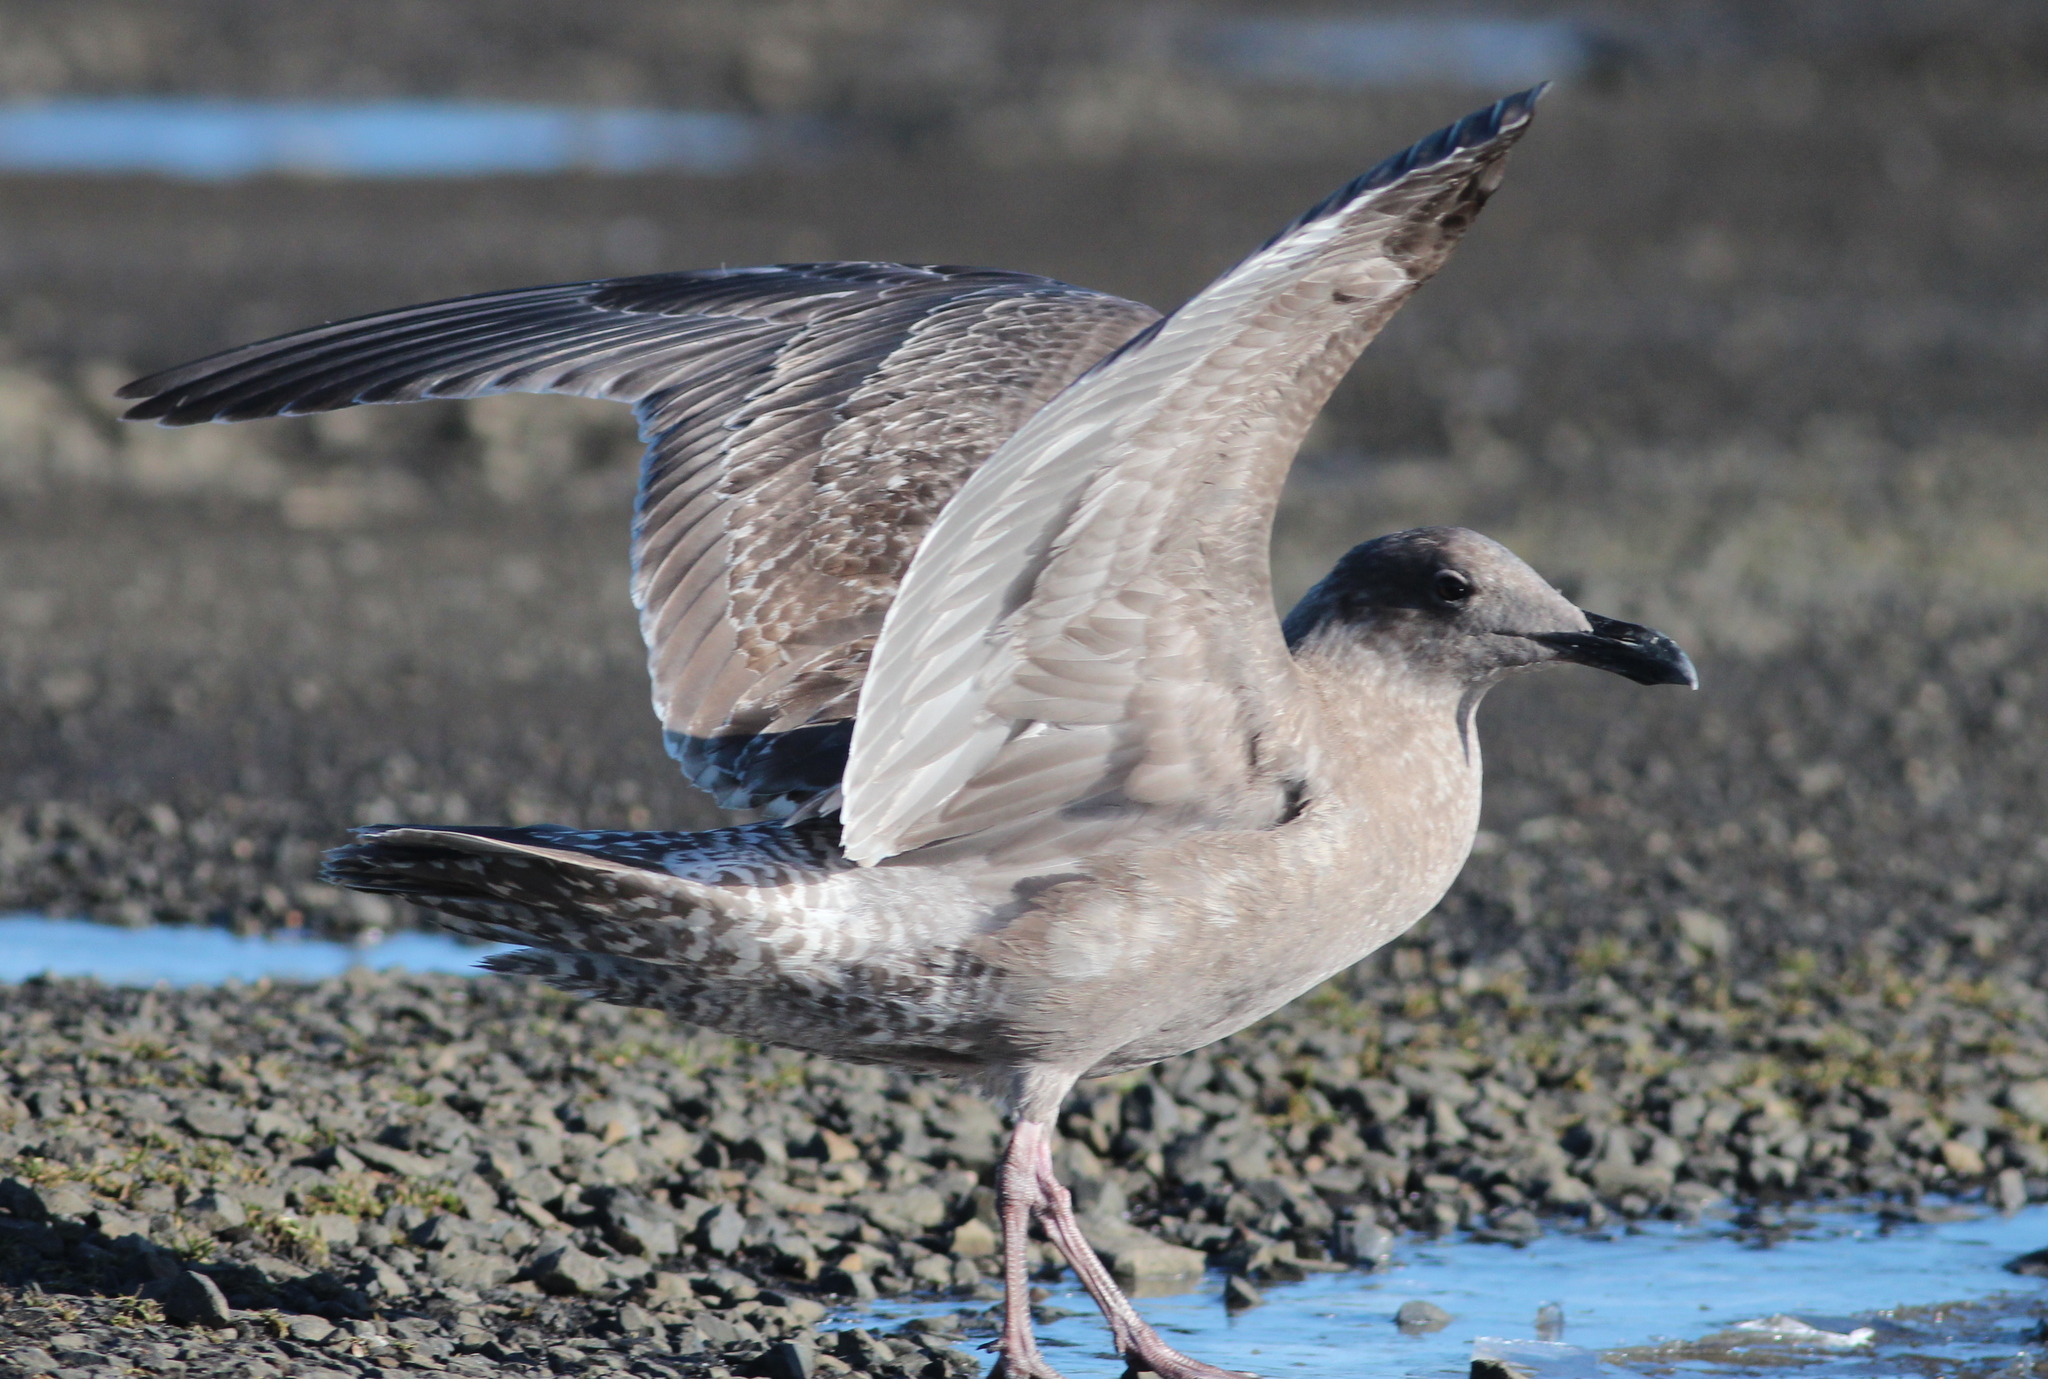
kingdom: Animalia
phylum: Chordata
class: Aves
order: Charadriiformes
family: Laridae
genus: Larus
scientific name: Larus
